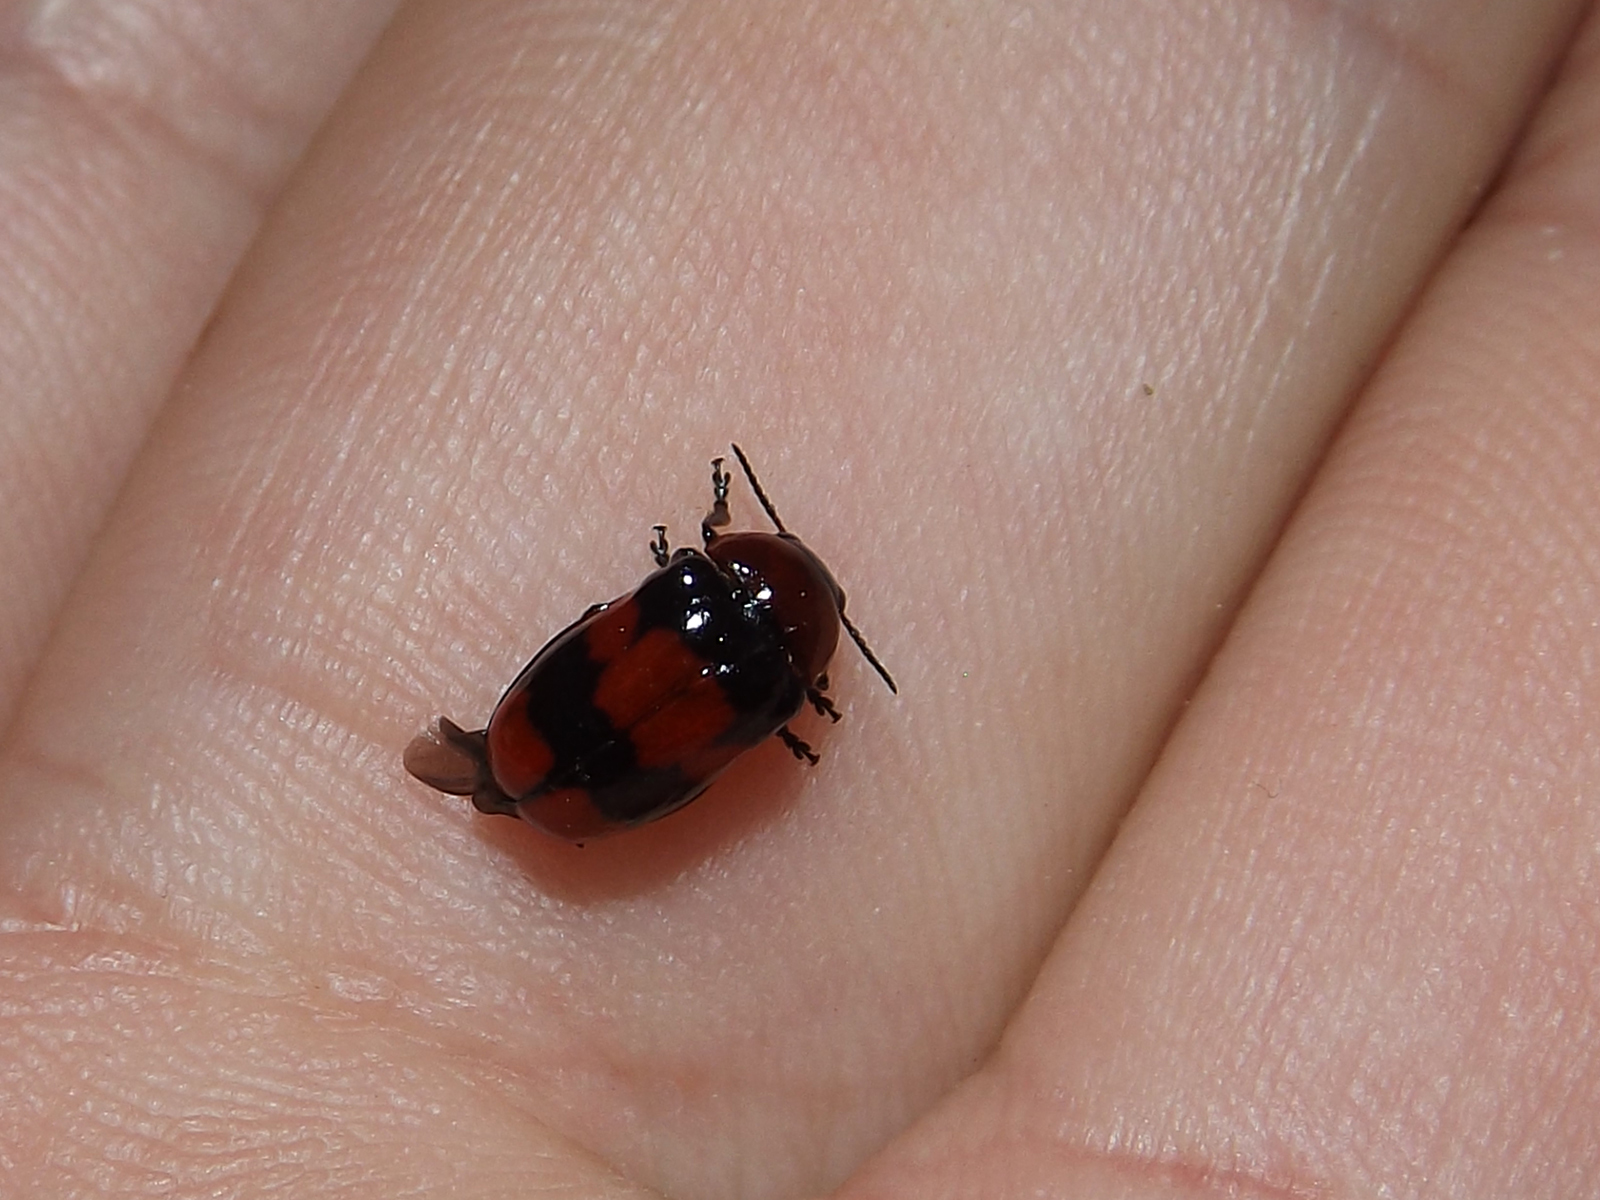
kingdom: Animalia
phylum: Arthropoda
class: Insecta
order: Coleoptera
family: Chrysomelidae
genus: Dachrys
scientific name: Dachrys
